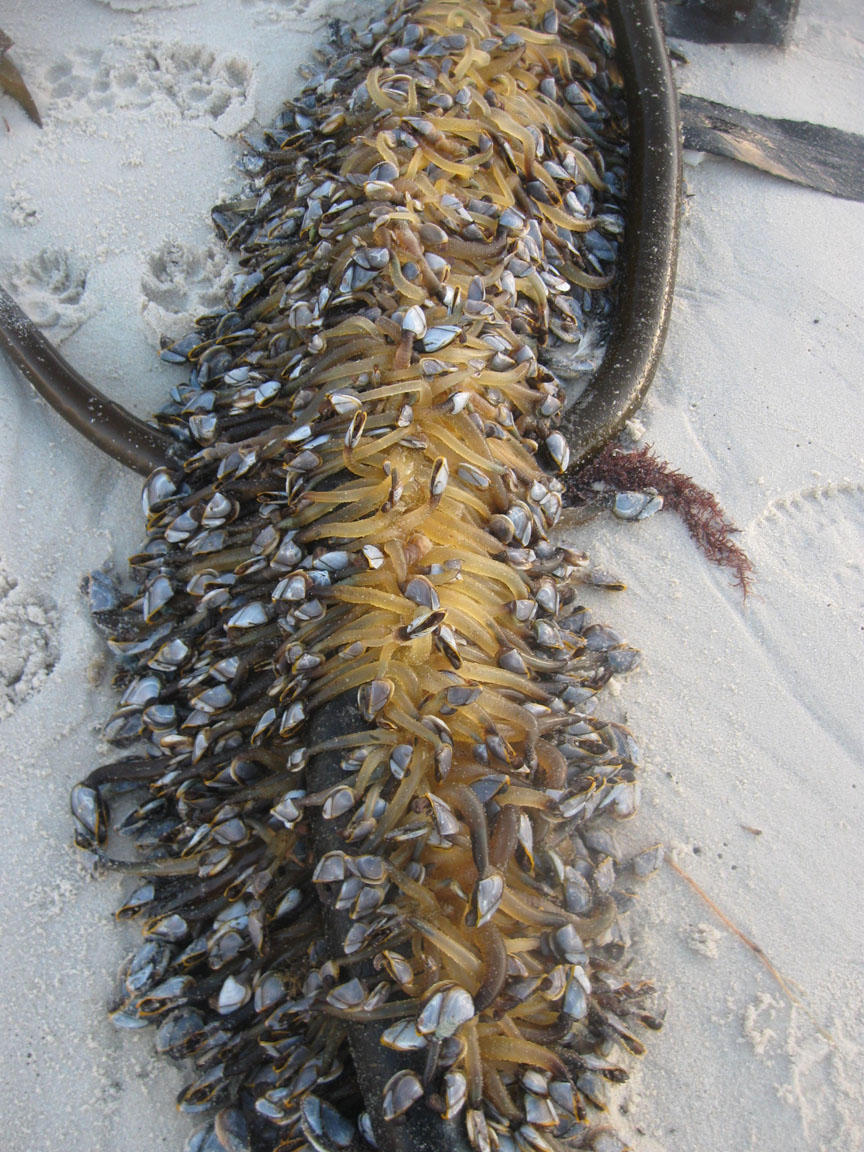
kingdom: Animalia
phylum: Arthropoda
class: Maxillopoda
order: Pedunculata
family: Lepadidae
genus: Lepas
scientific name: Lepas testudinata
